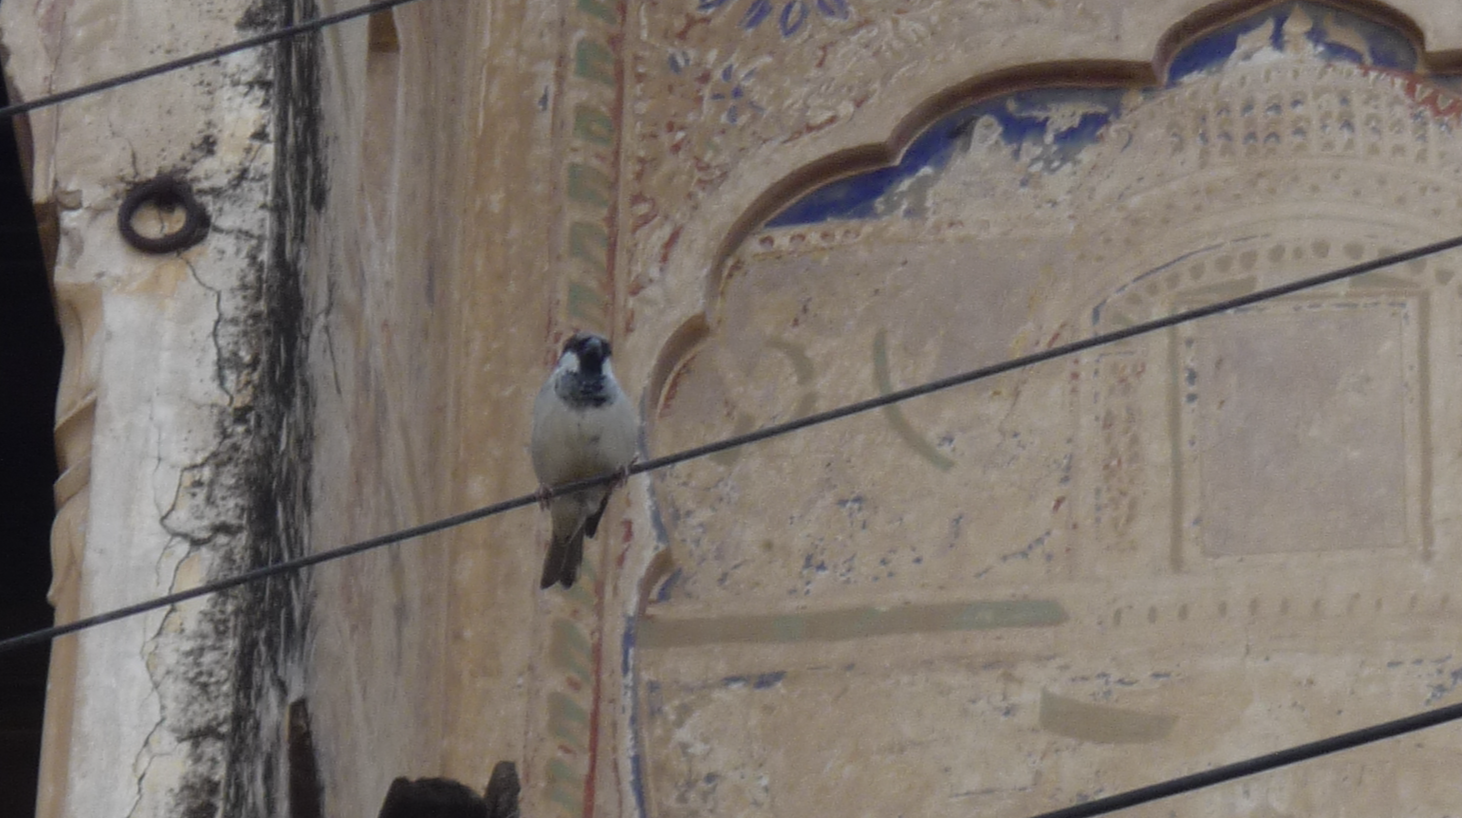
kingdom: Animalia
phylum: Chordata
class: Aves
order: Passeriformes
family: Passeridae
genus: Passer
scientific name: Passer domesticus
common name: House sparrow
